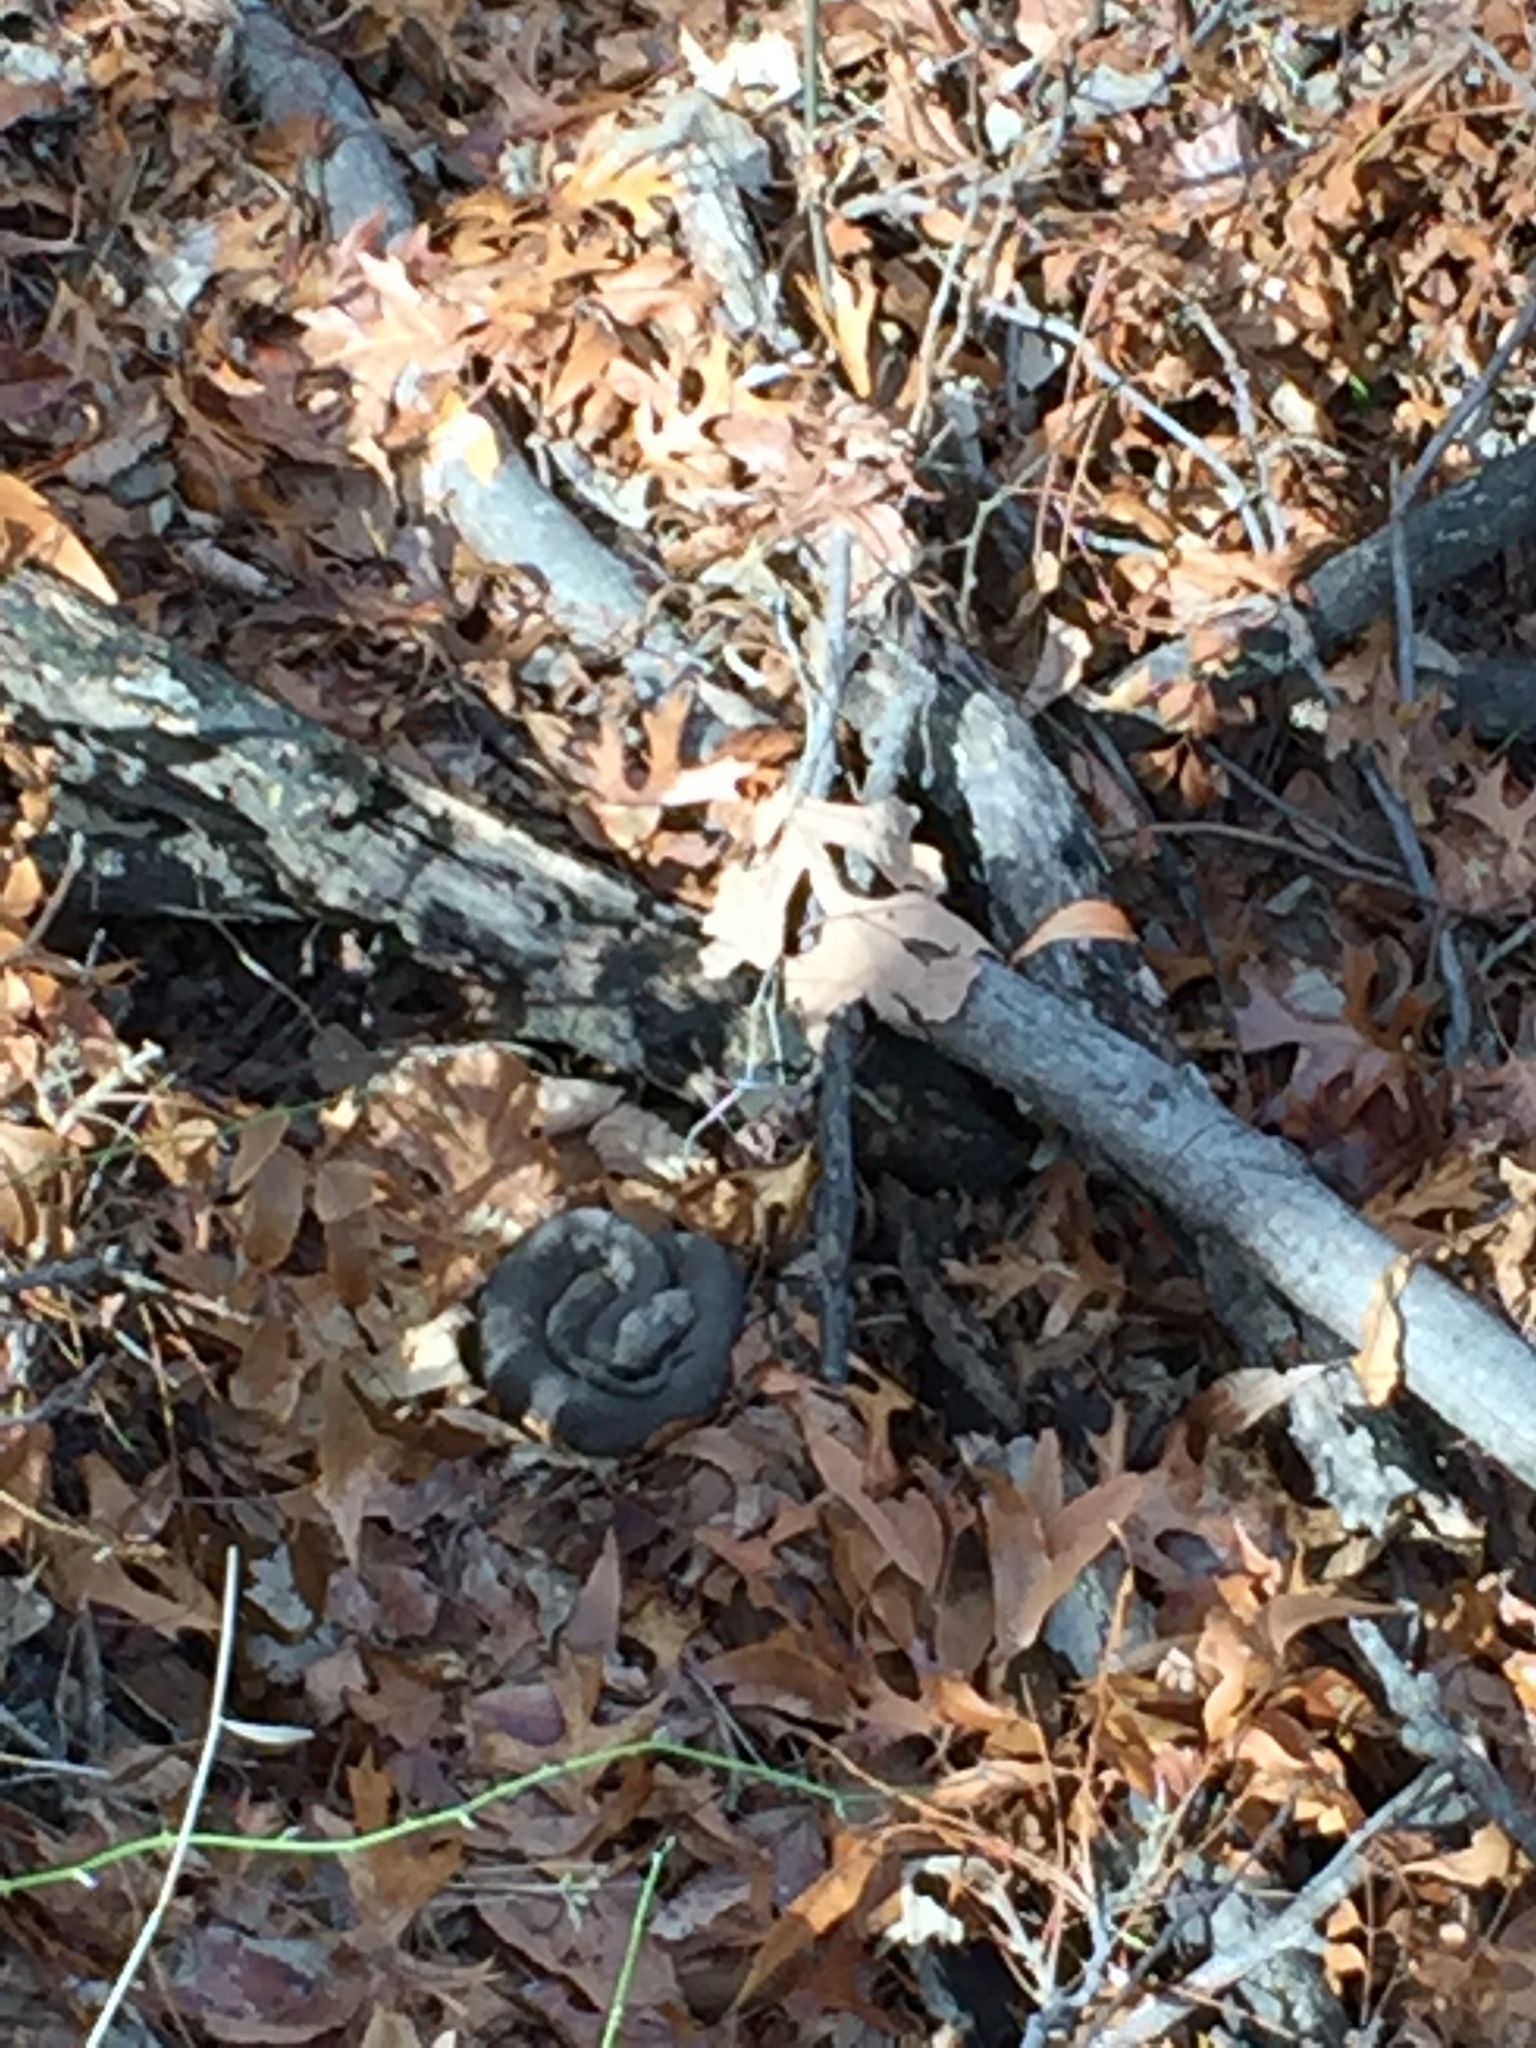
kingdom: Animalia
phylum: Chordata
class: Squamata
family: Viperidae
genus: Agkistrodon
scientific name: Agkistrodon piscivorus
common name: Cottonmouth
